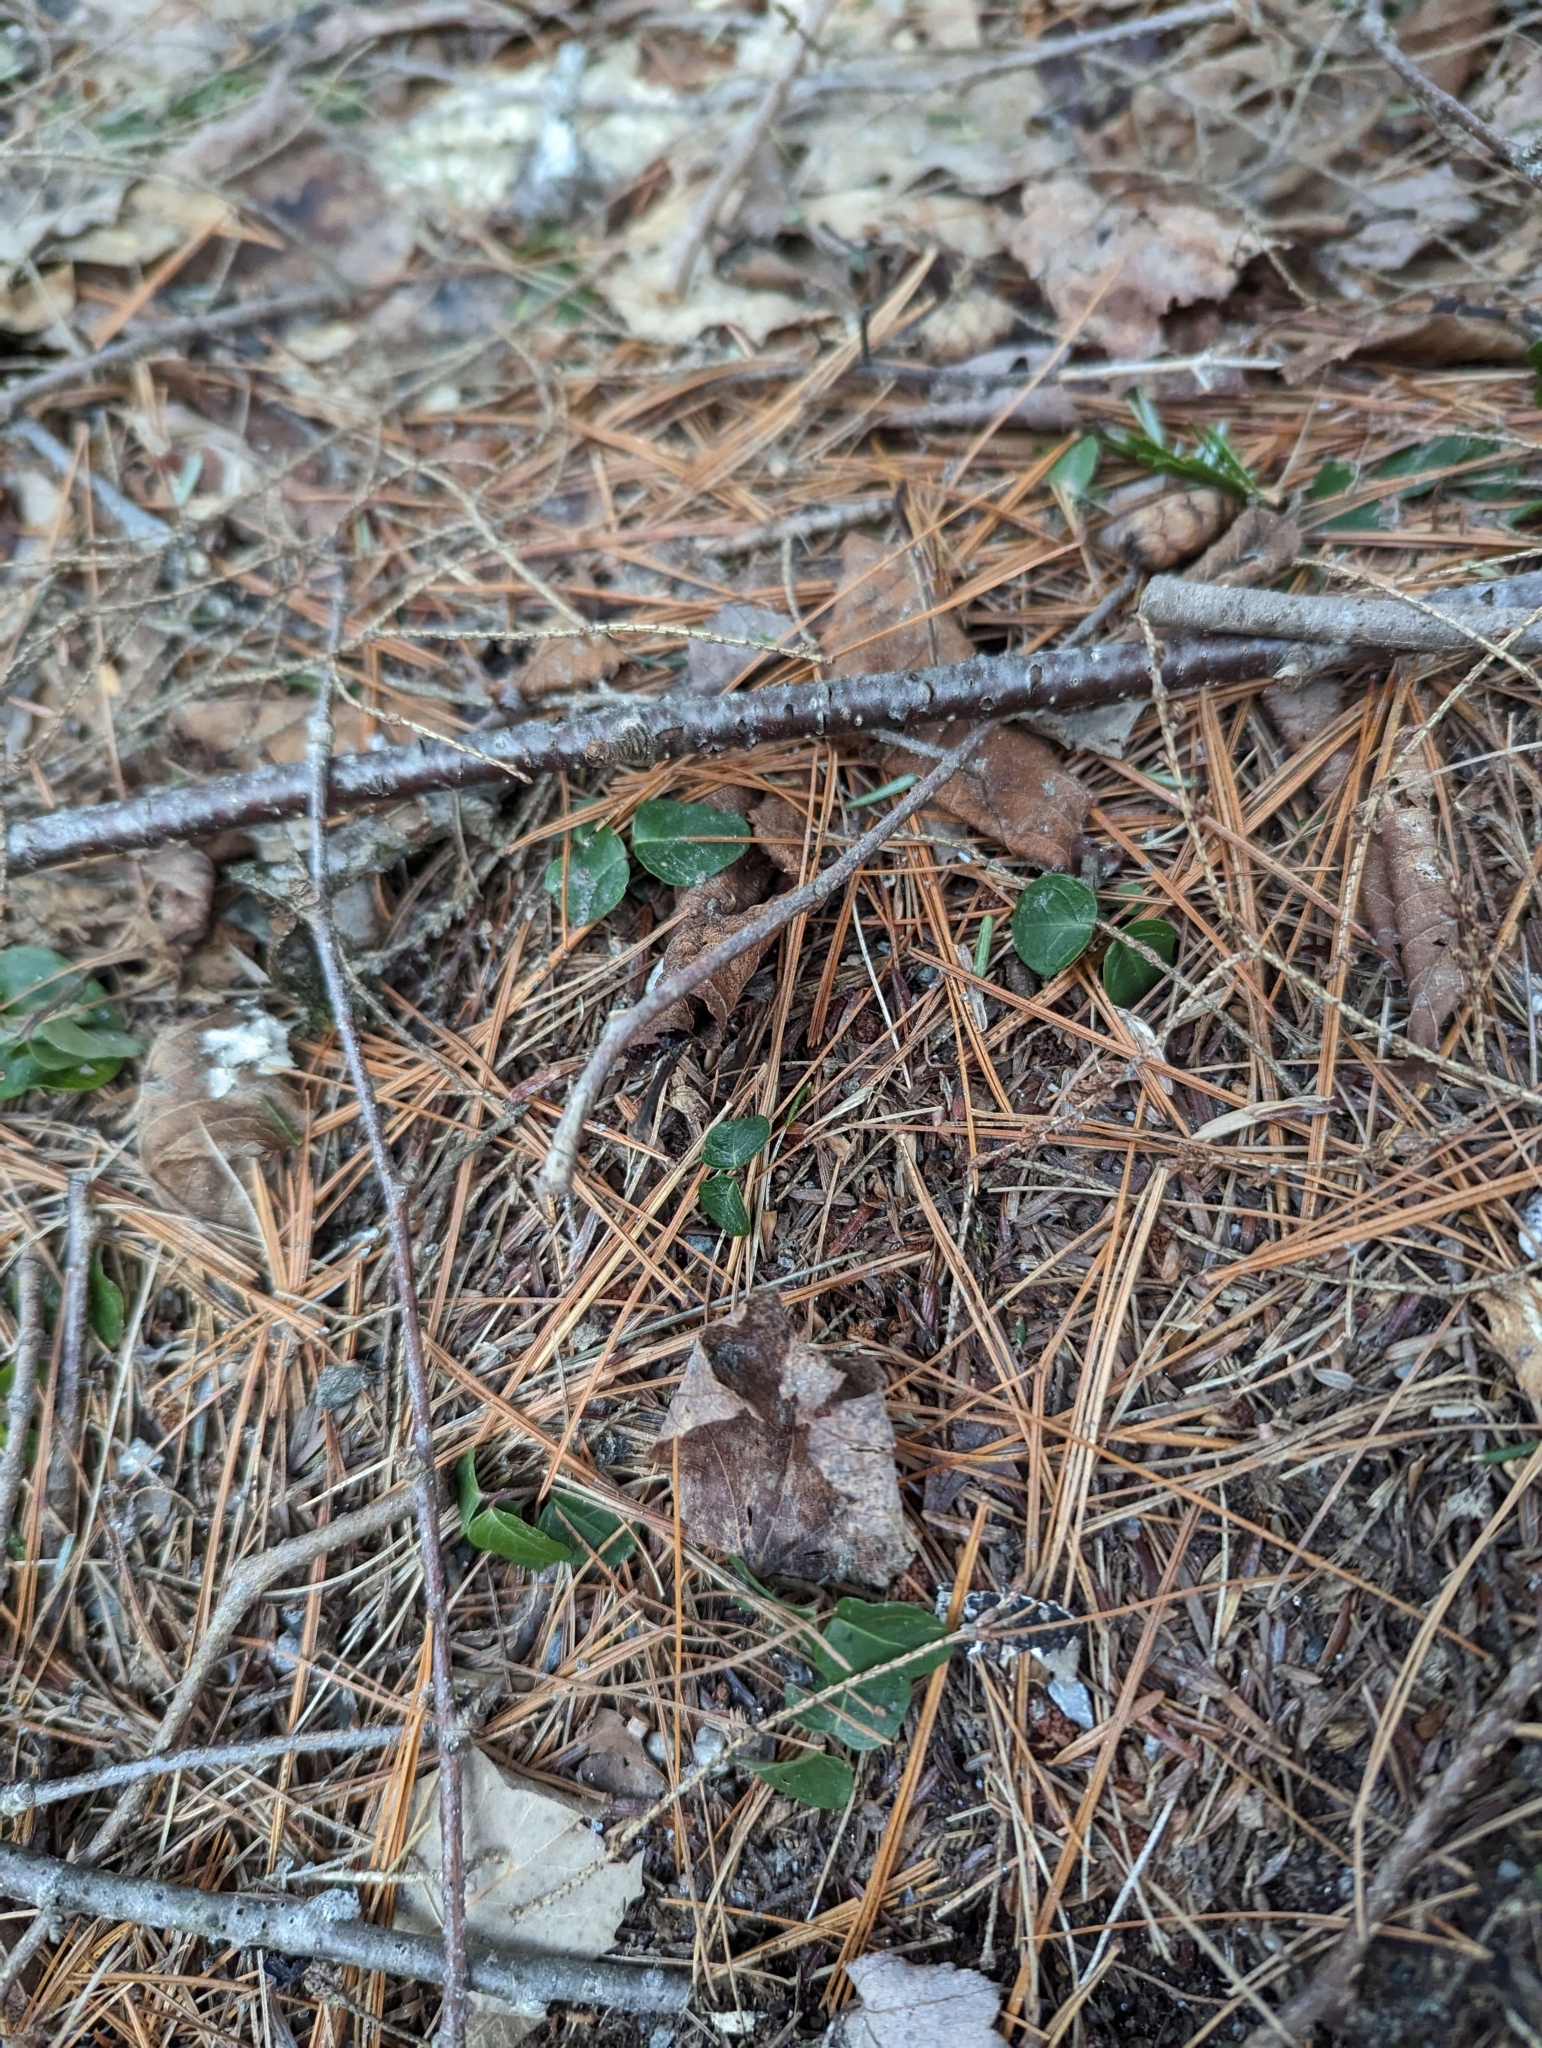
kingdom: Plantae
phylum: Tracheophyta
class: Magnoliopsida
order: Gentianales
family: Rubiaceae
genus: Mitchella
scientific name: Mitchella repens
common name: Partridge-berry
